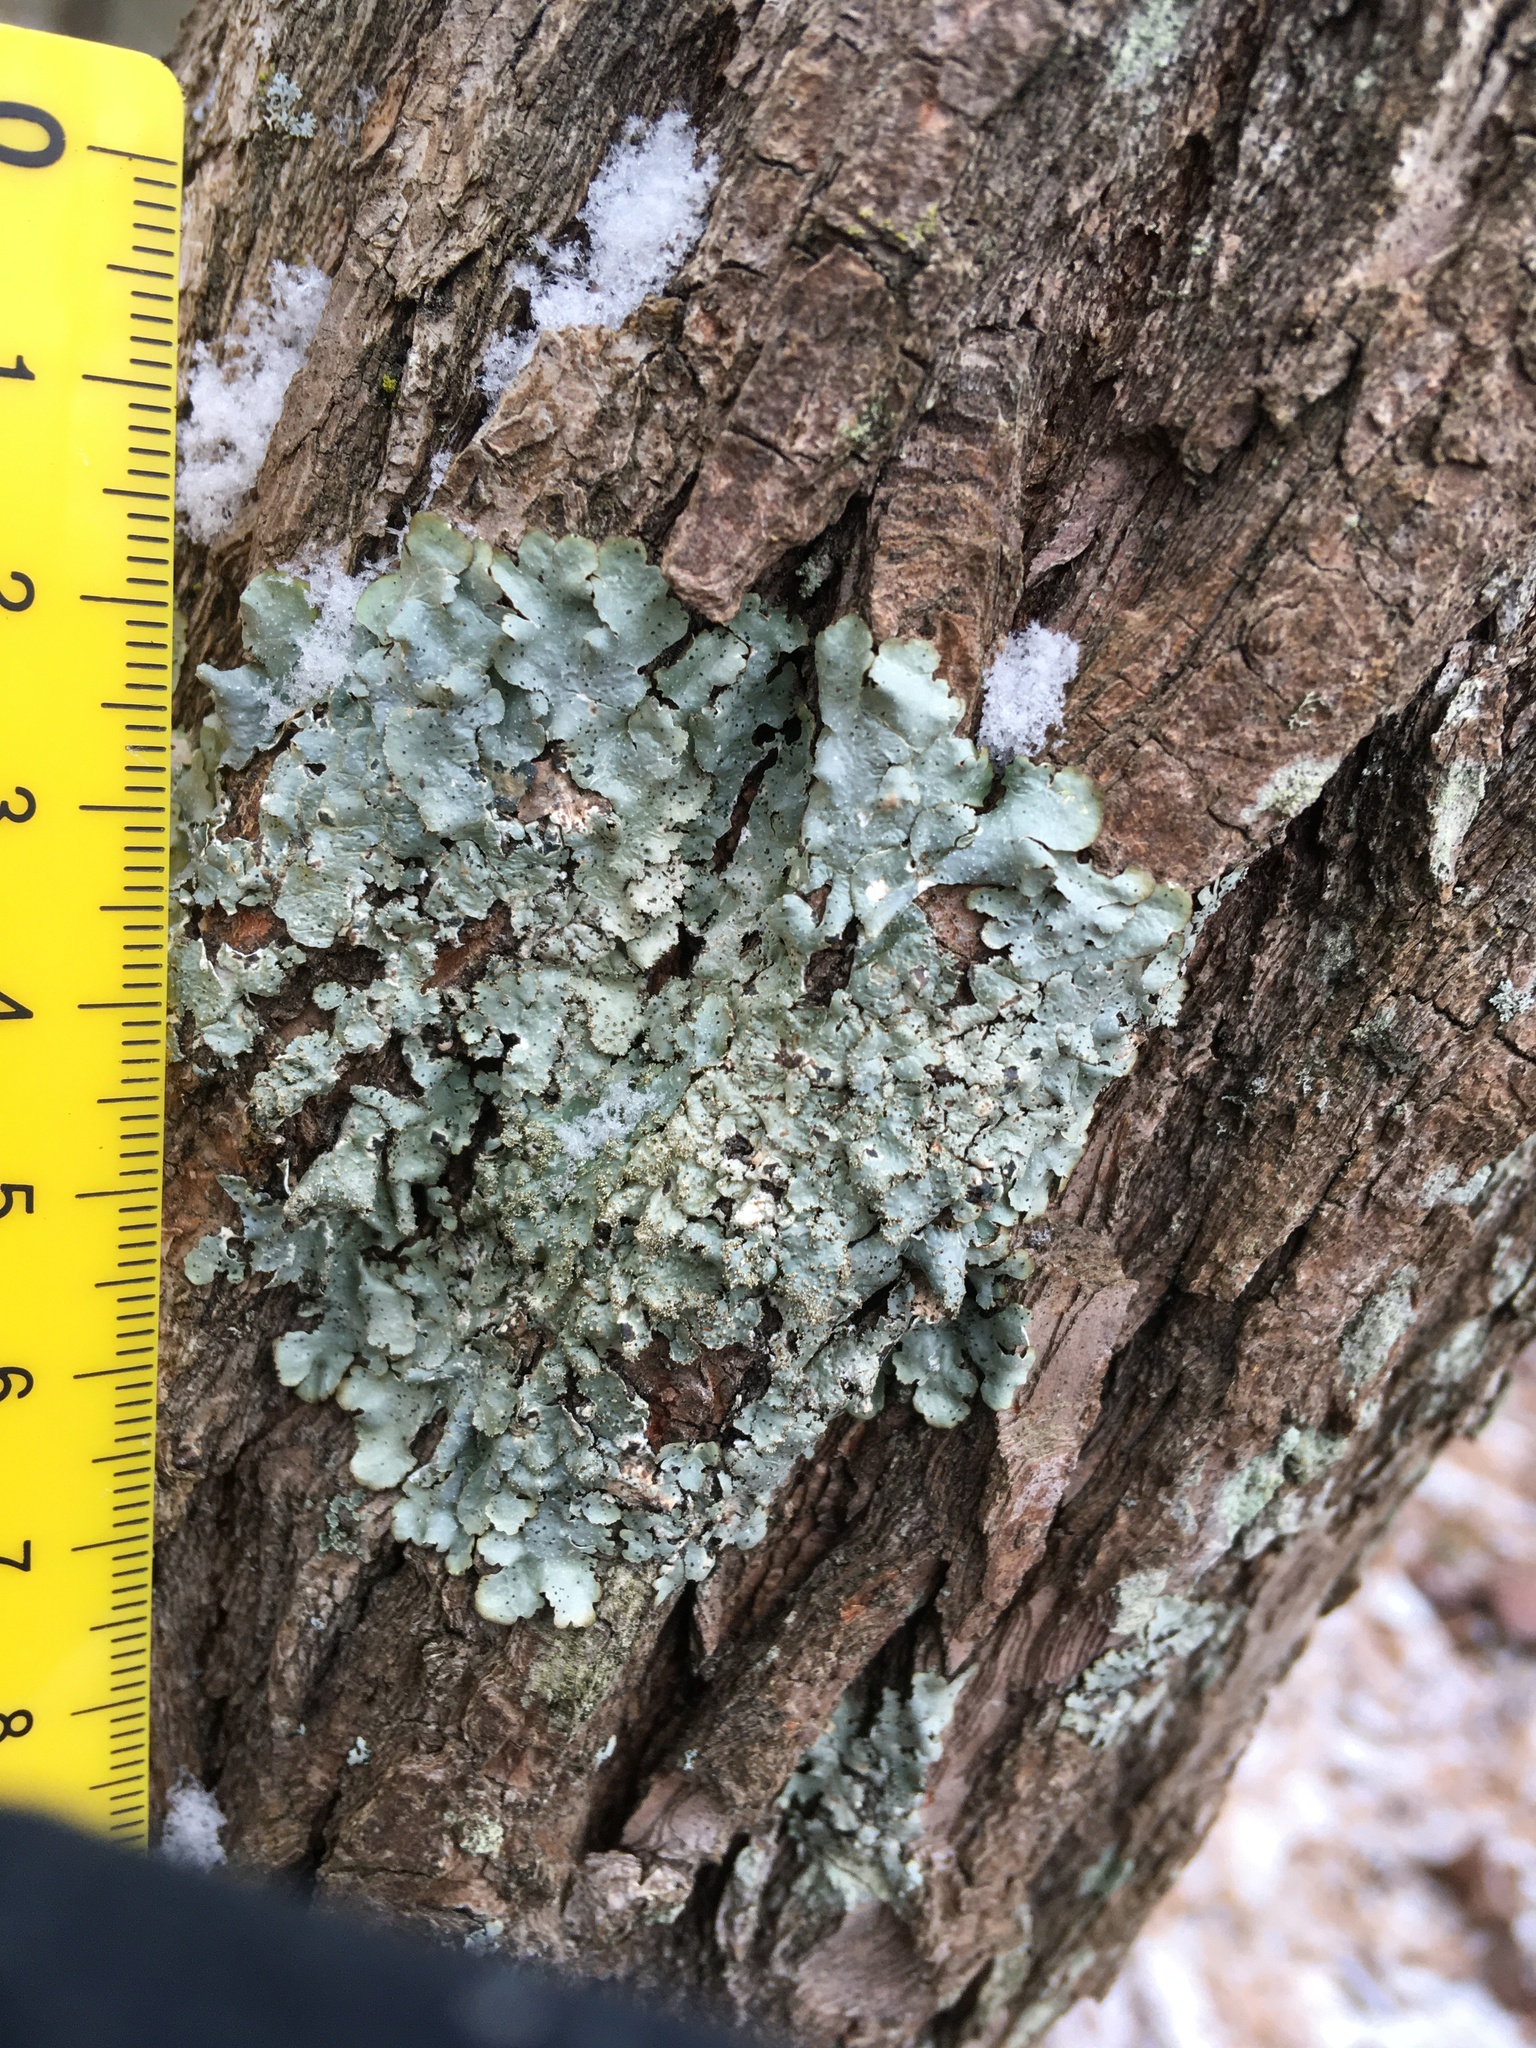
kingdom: Fungi
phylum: Ascomycota
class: Lecanoromycetes
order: Lecanorales
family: Parmeliaceae
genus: Punctelia
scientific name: Punctelia rudecta
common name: Rough speckled shield lichen
